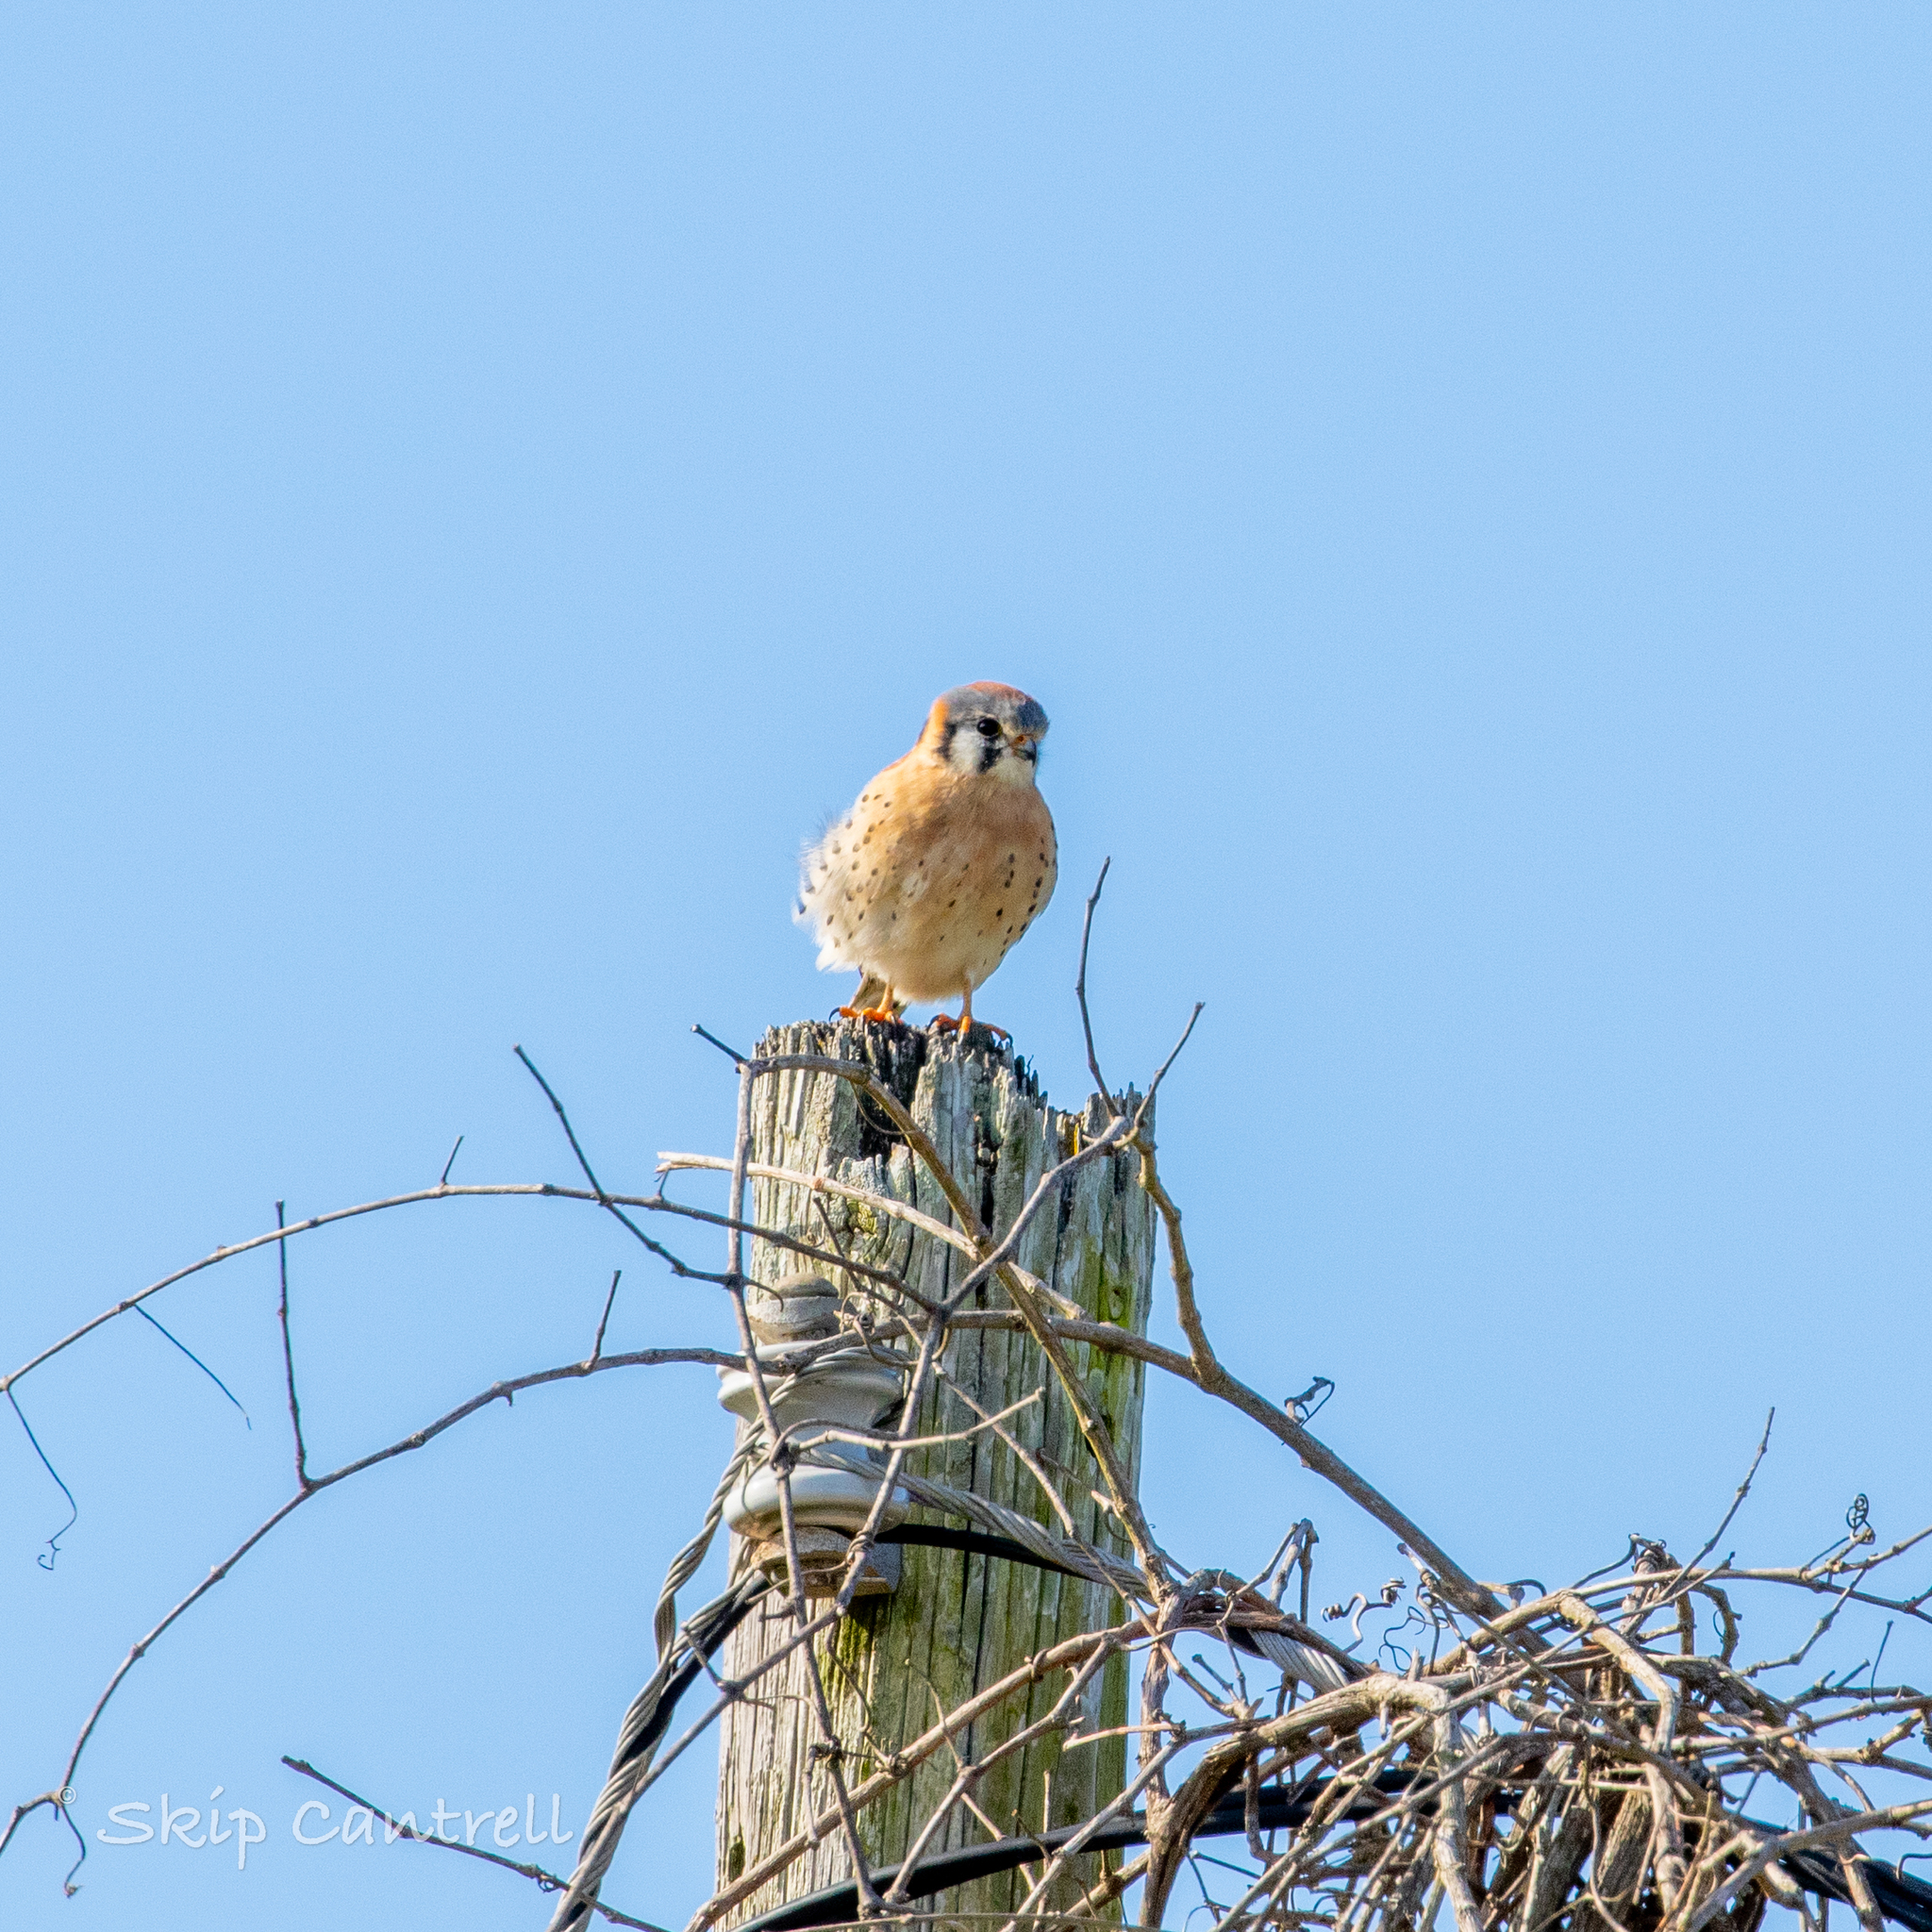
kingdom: Animalia
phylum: Chordata
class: Aves
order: Falconiformes
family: Falconidae
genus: Falco
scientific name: Falco sparverius
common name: American kestrel
